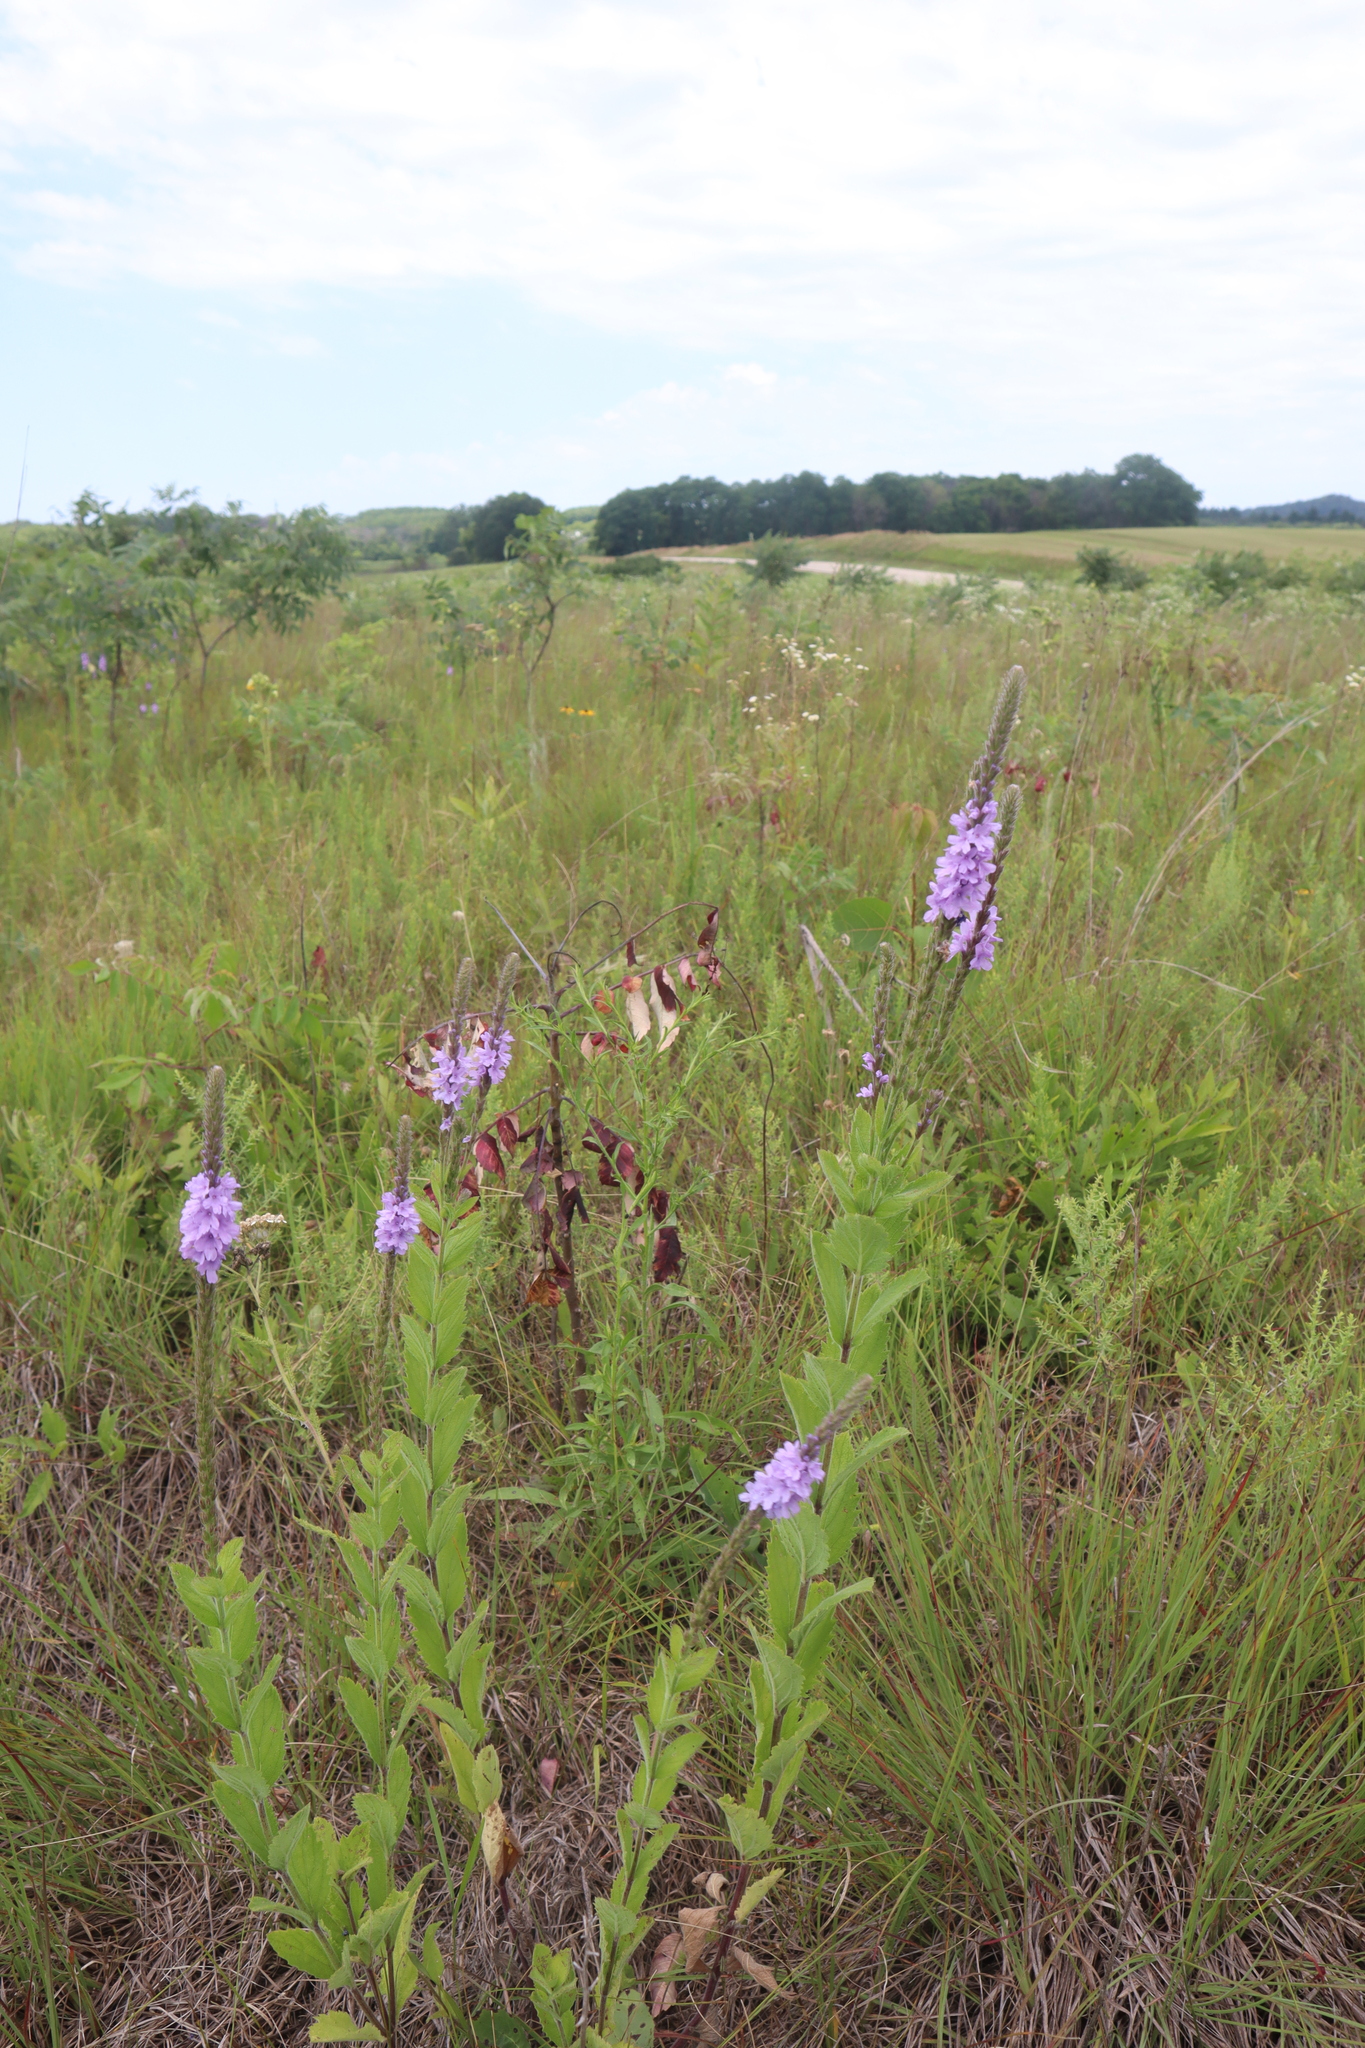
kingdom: Plantae
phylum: Tracheophyta
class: Magnoliopsida
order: Lamiales
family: Verbenaceae
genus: Verbena
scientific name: Verbena stricta
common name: Hoary vervain
